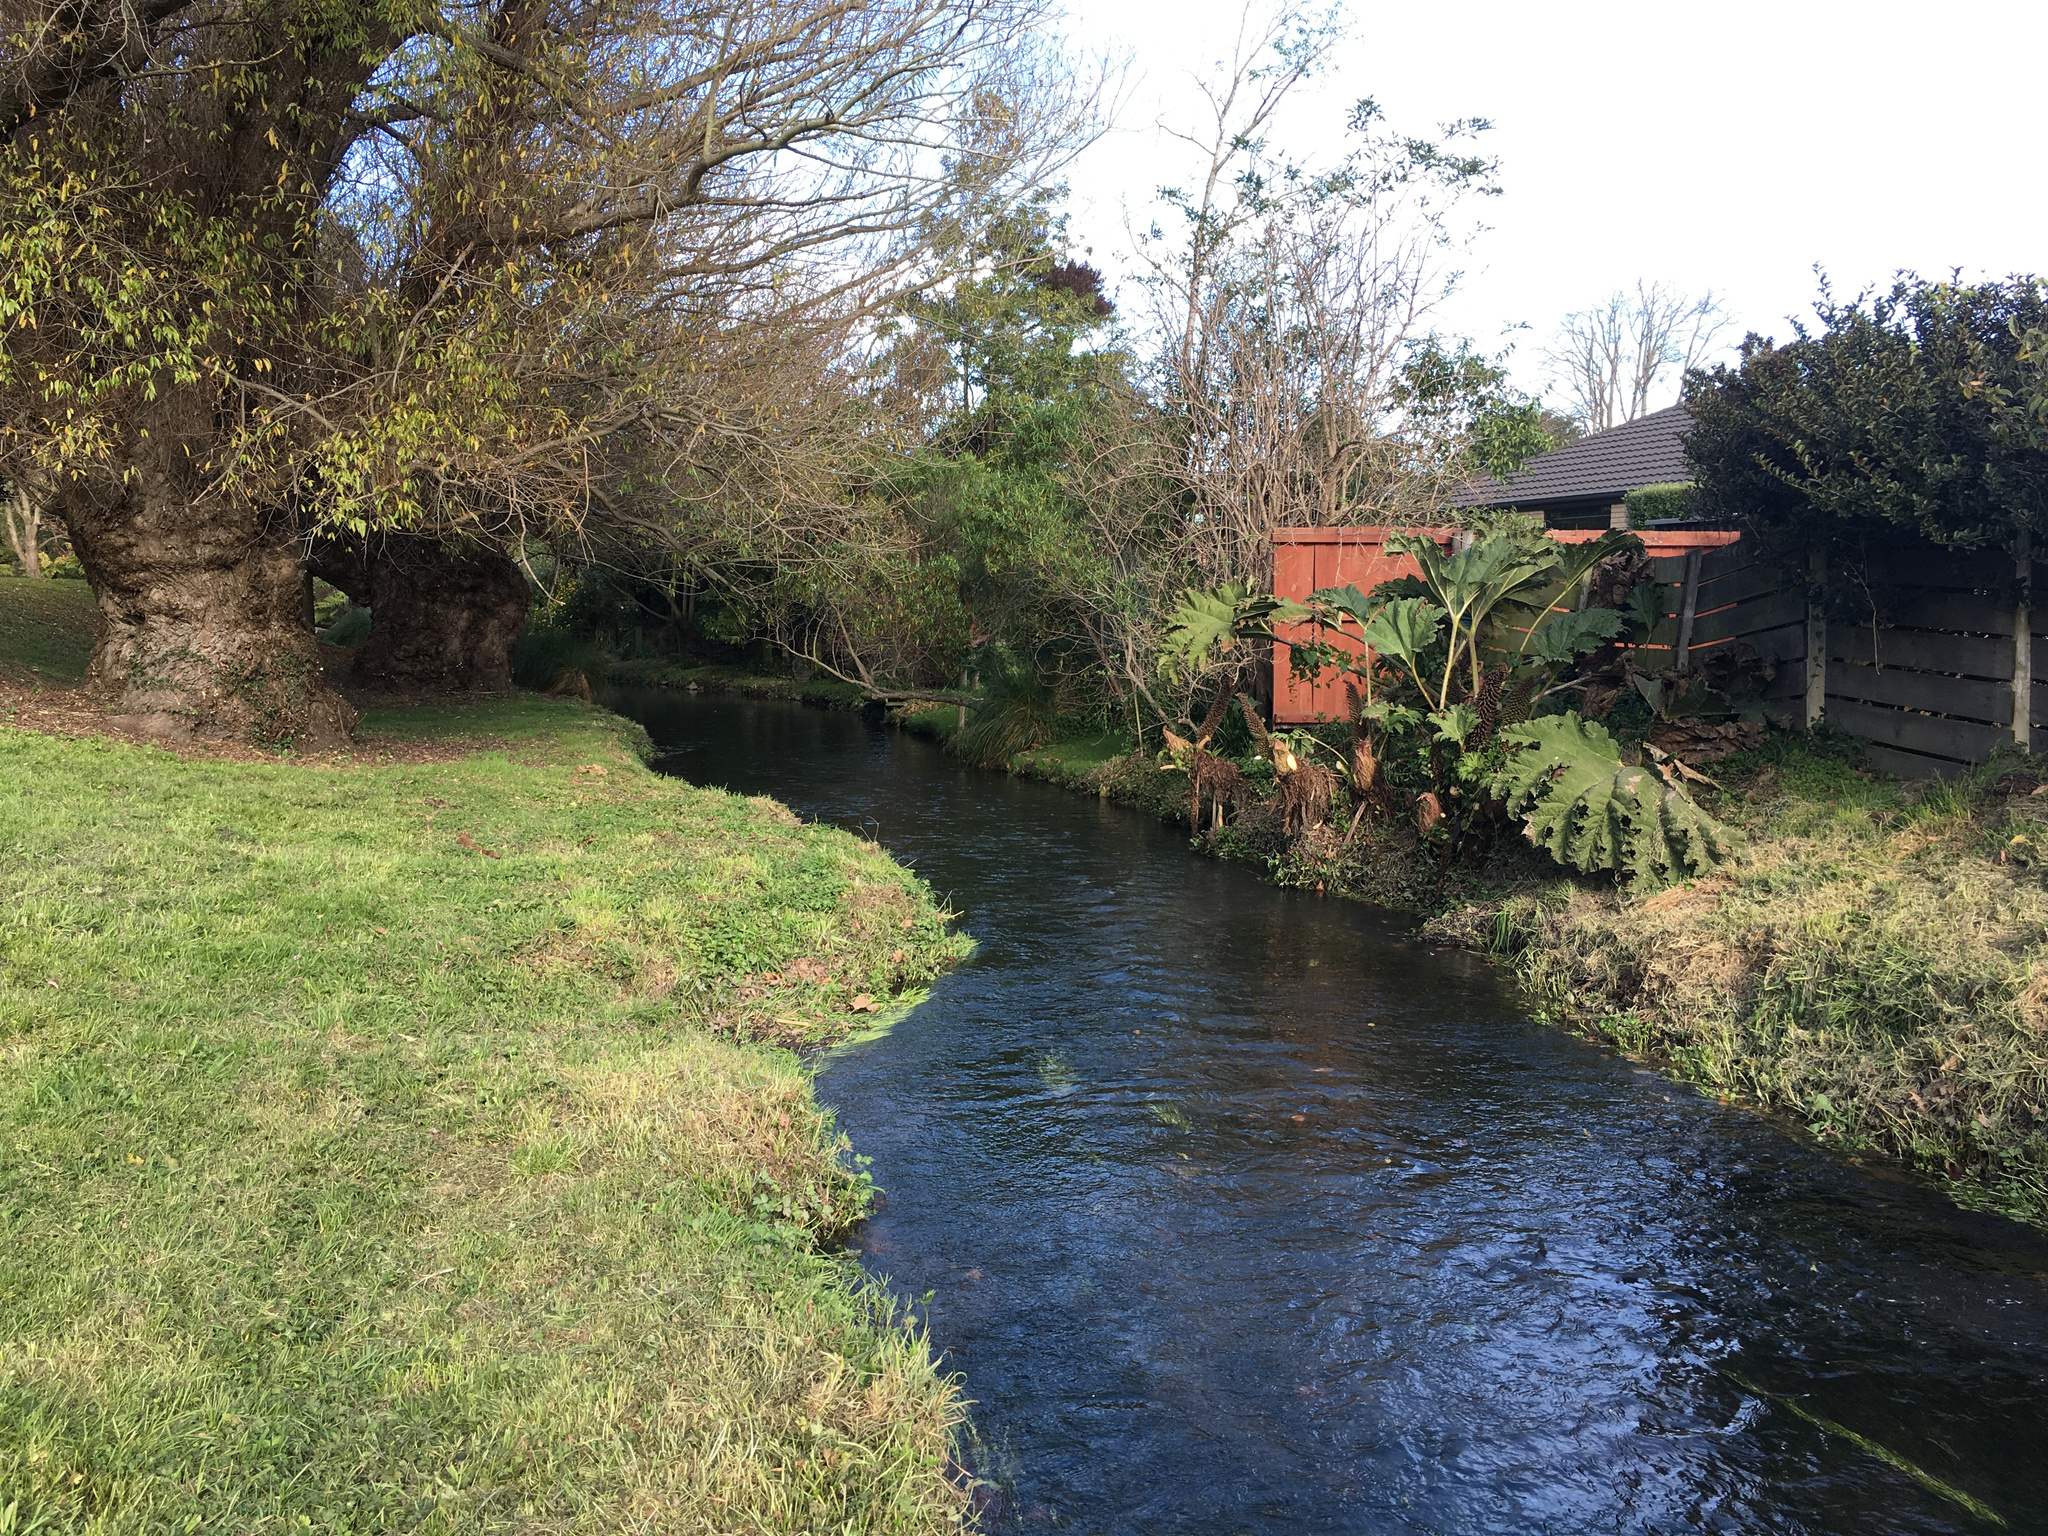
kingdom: Plantae
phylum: Tracheophyta
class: Magnoliopsida
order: Gunnerales
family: Gunneraceae
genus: Gunnera
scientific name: Gunnera tinctoria
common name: Giant-rhubarb
